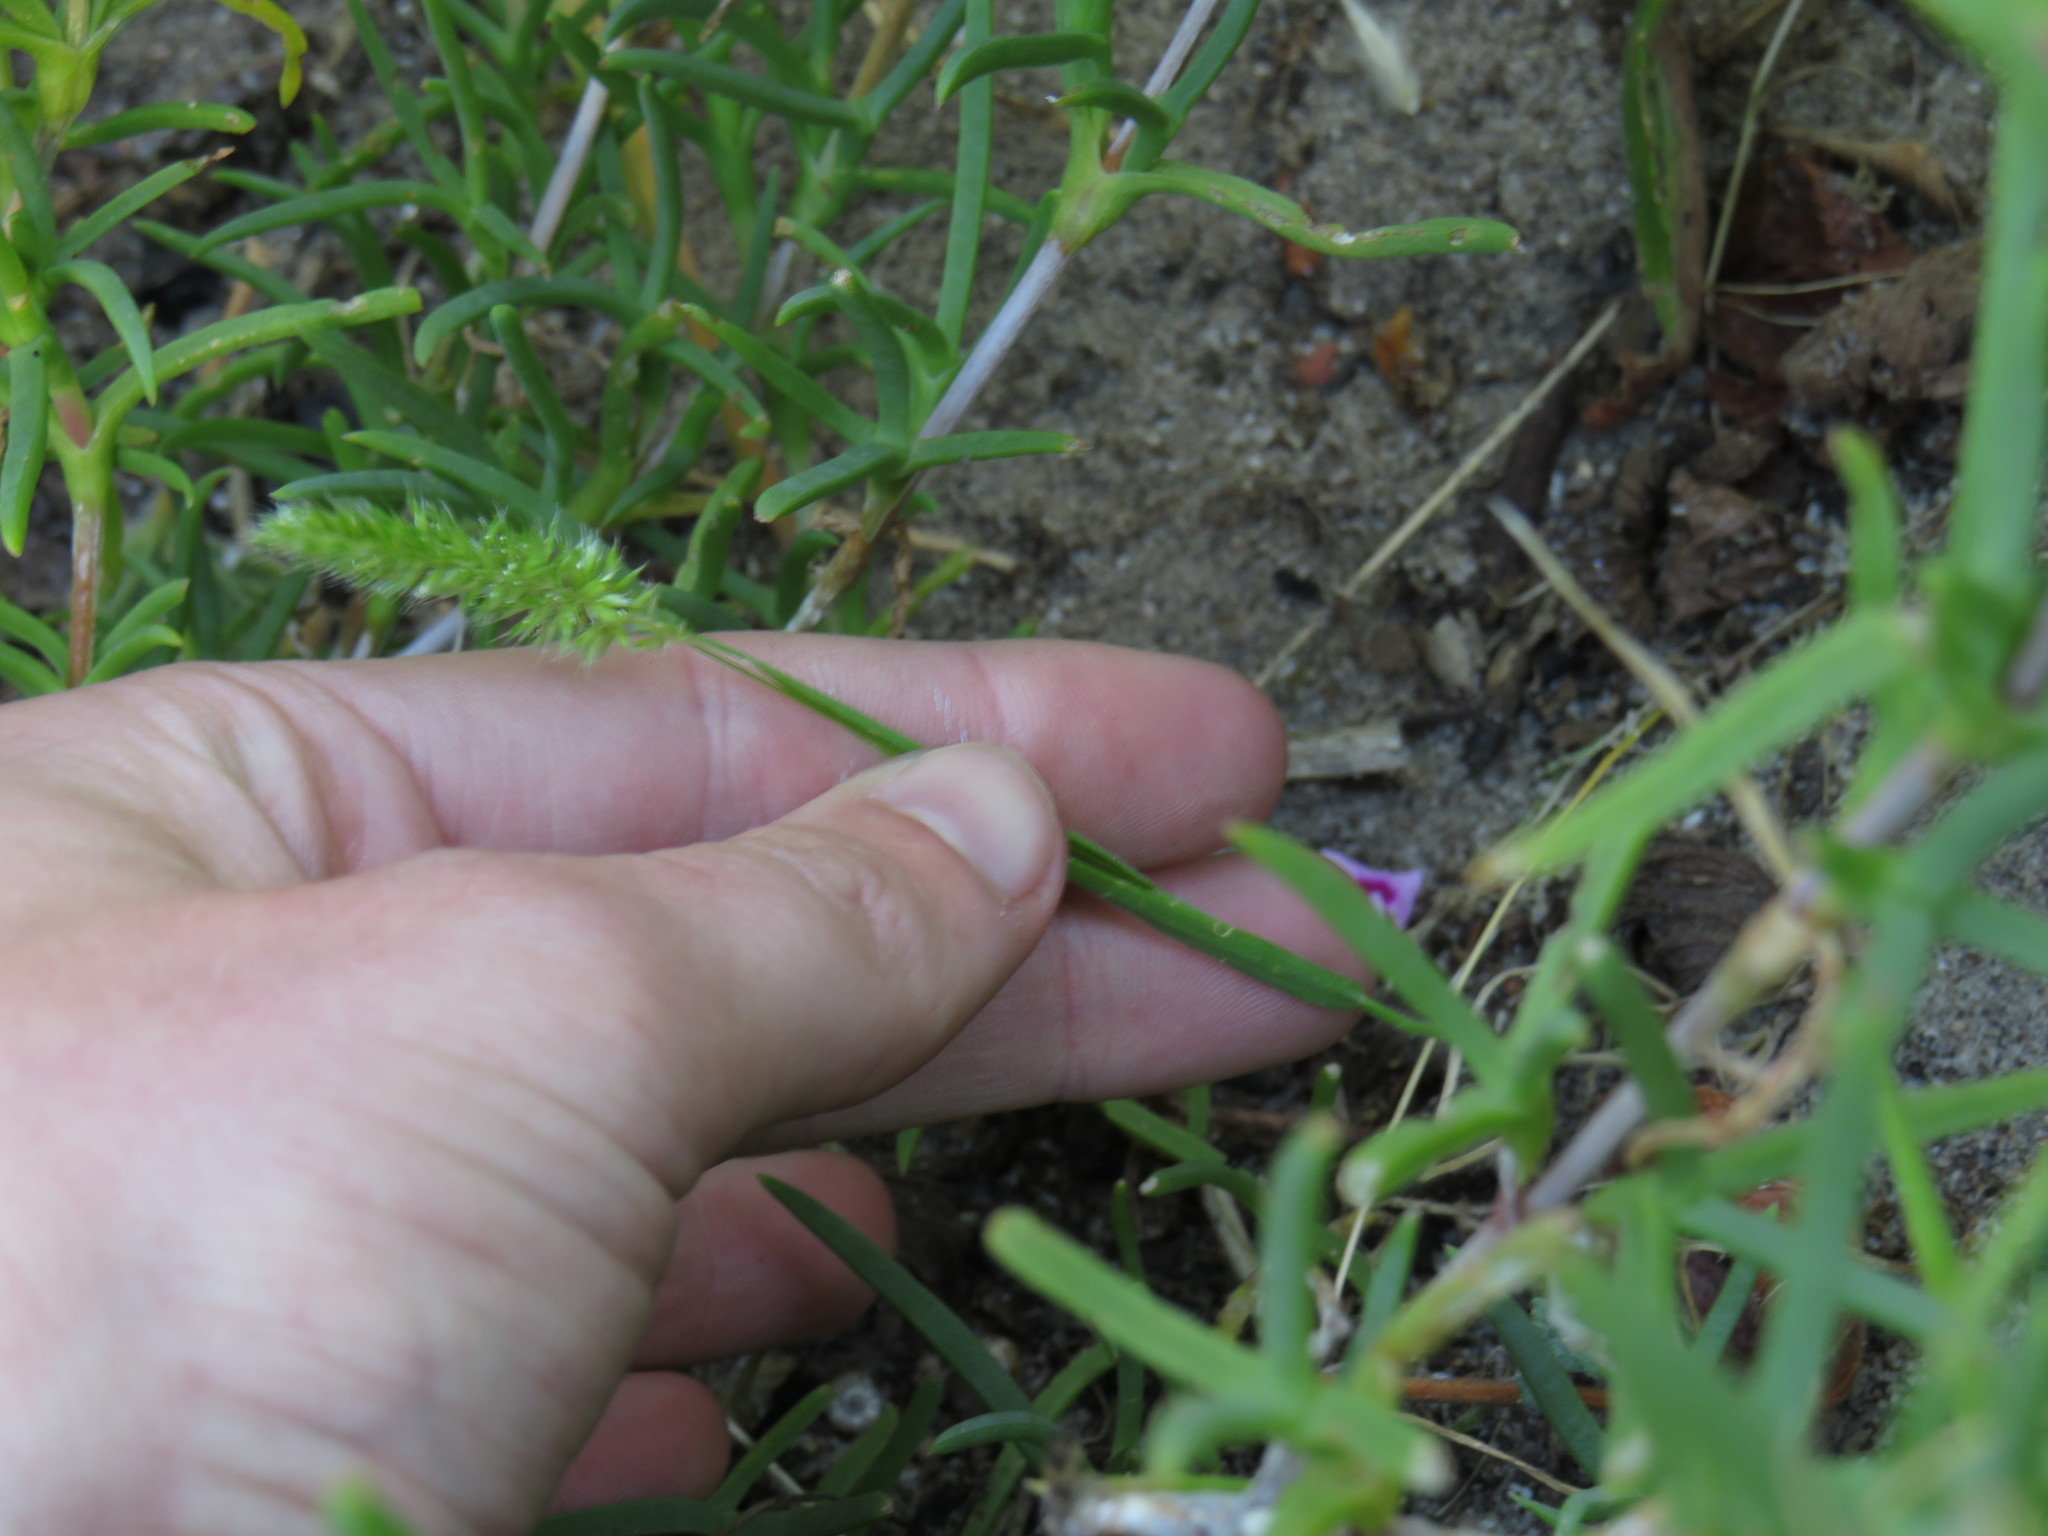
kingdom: Plantae
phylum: Tracheophyta
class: Liliopsida
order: Poales
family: Poaceae
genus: Cynosurus
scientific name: Cynosurus echinatus
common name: Rough dog's-tail
